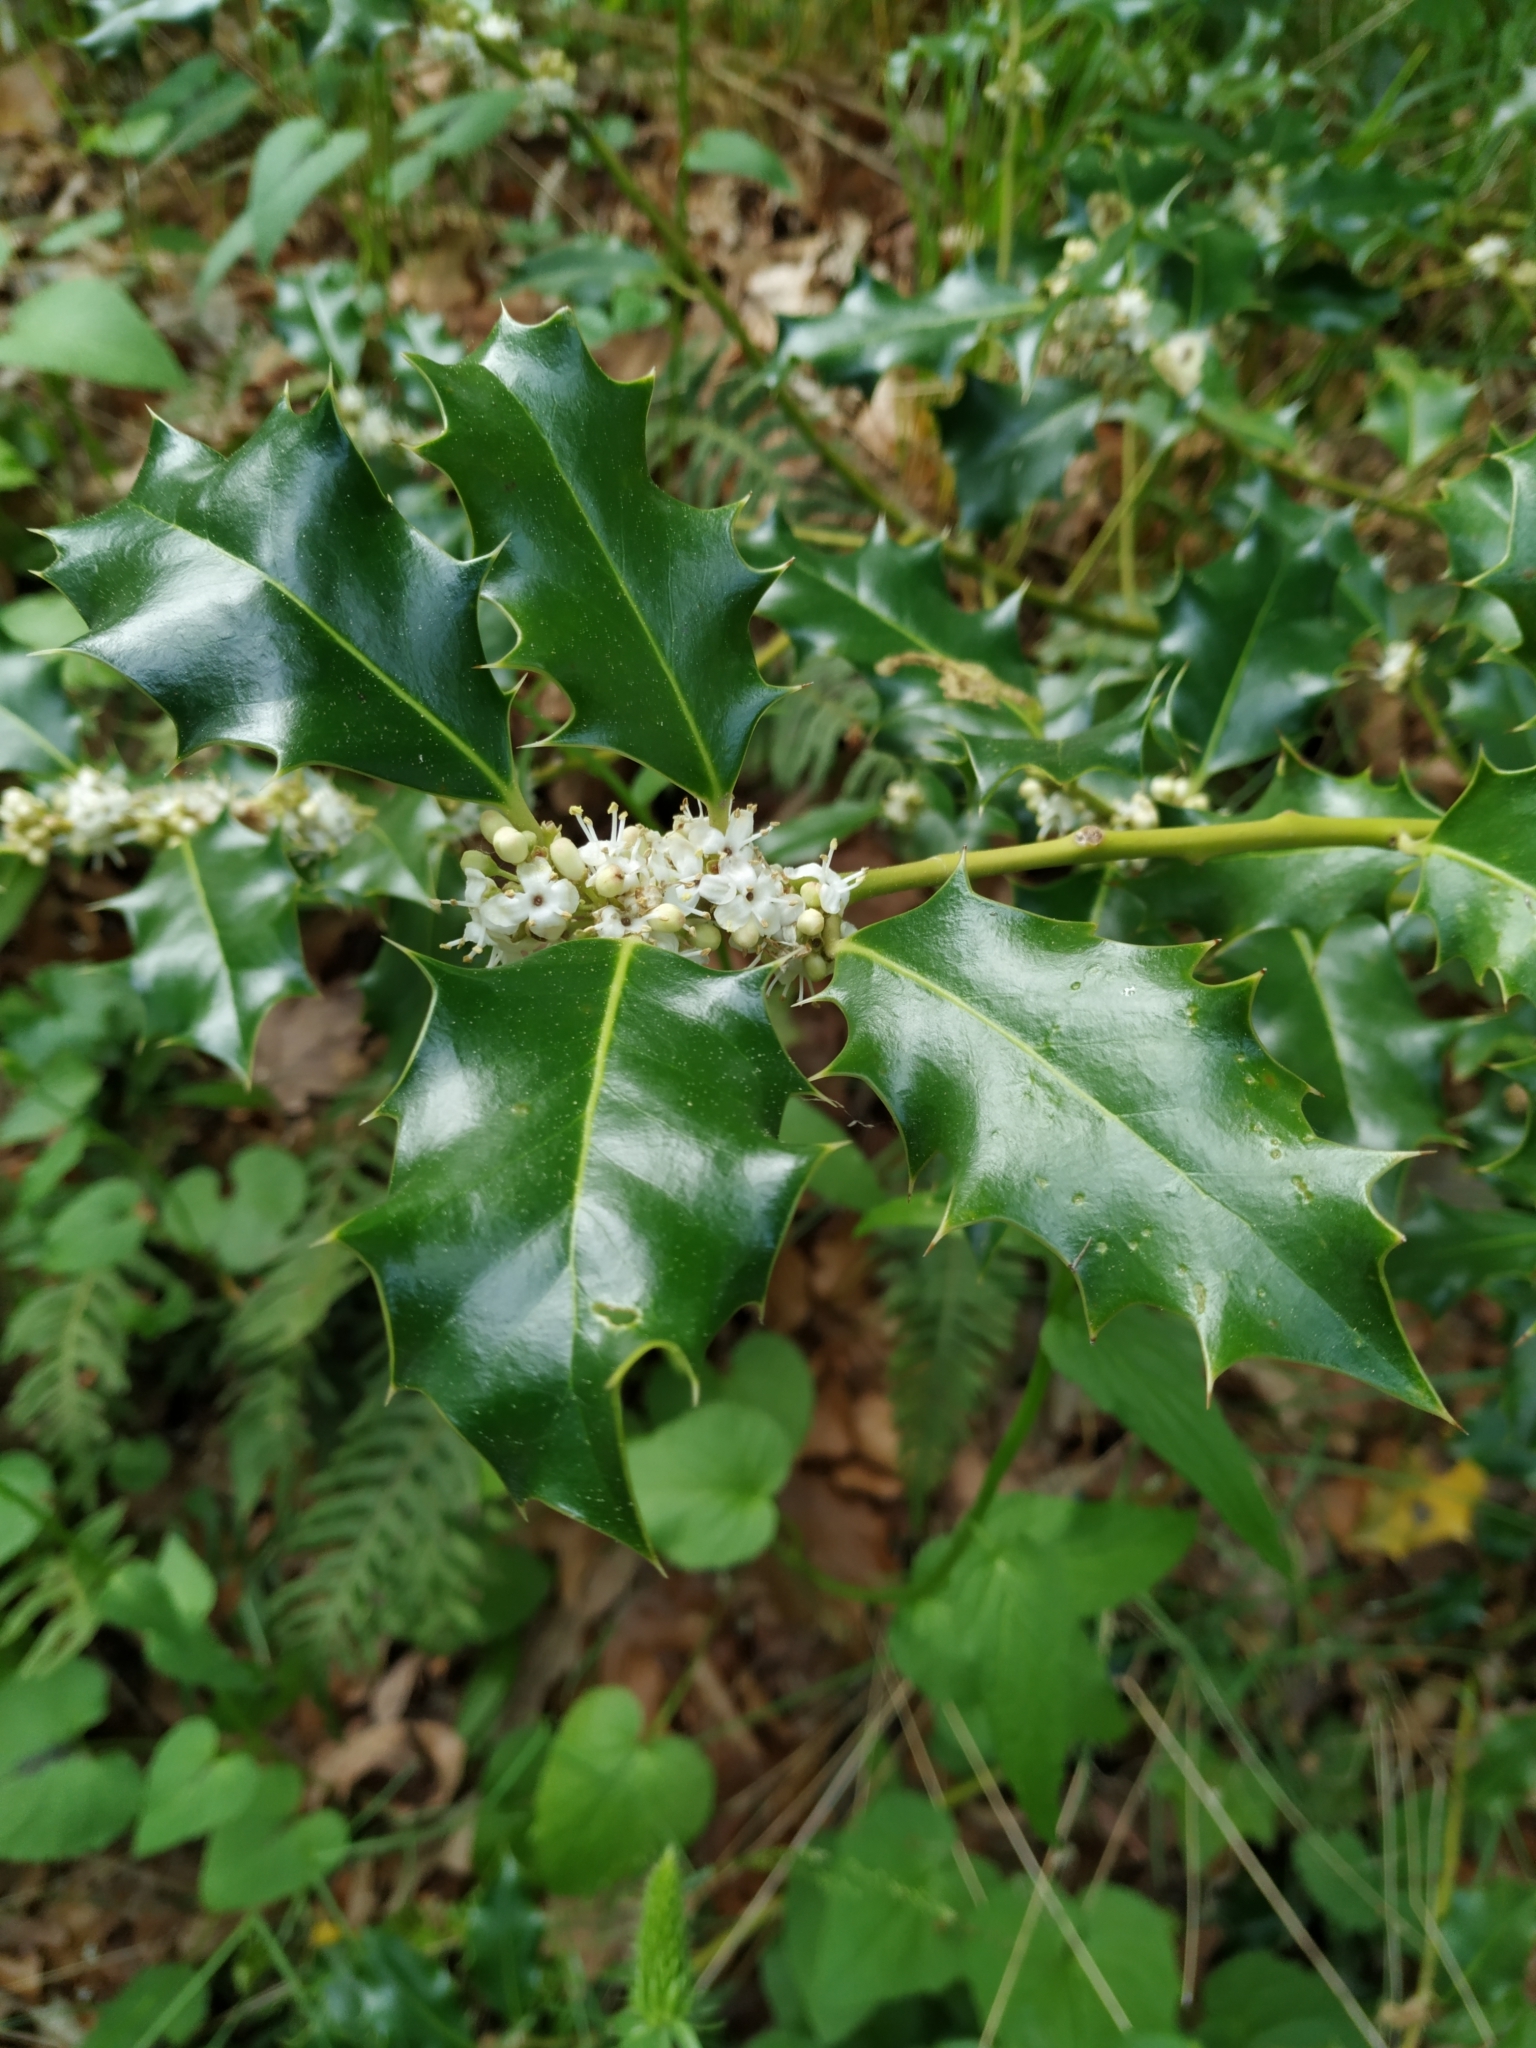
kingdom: Plantae
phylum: Tracheophyta
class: Magnoliopsida
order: Aquifoliales
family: Aquifoliaceae
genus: Ilex
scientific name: Ilex aquifolium
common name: English holly
